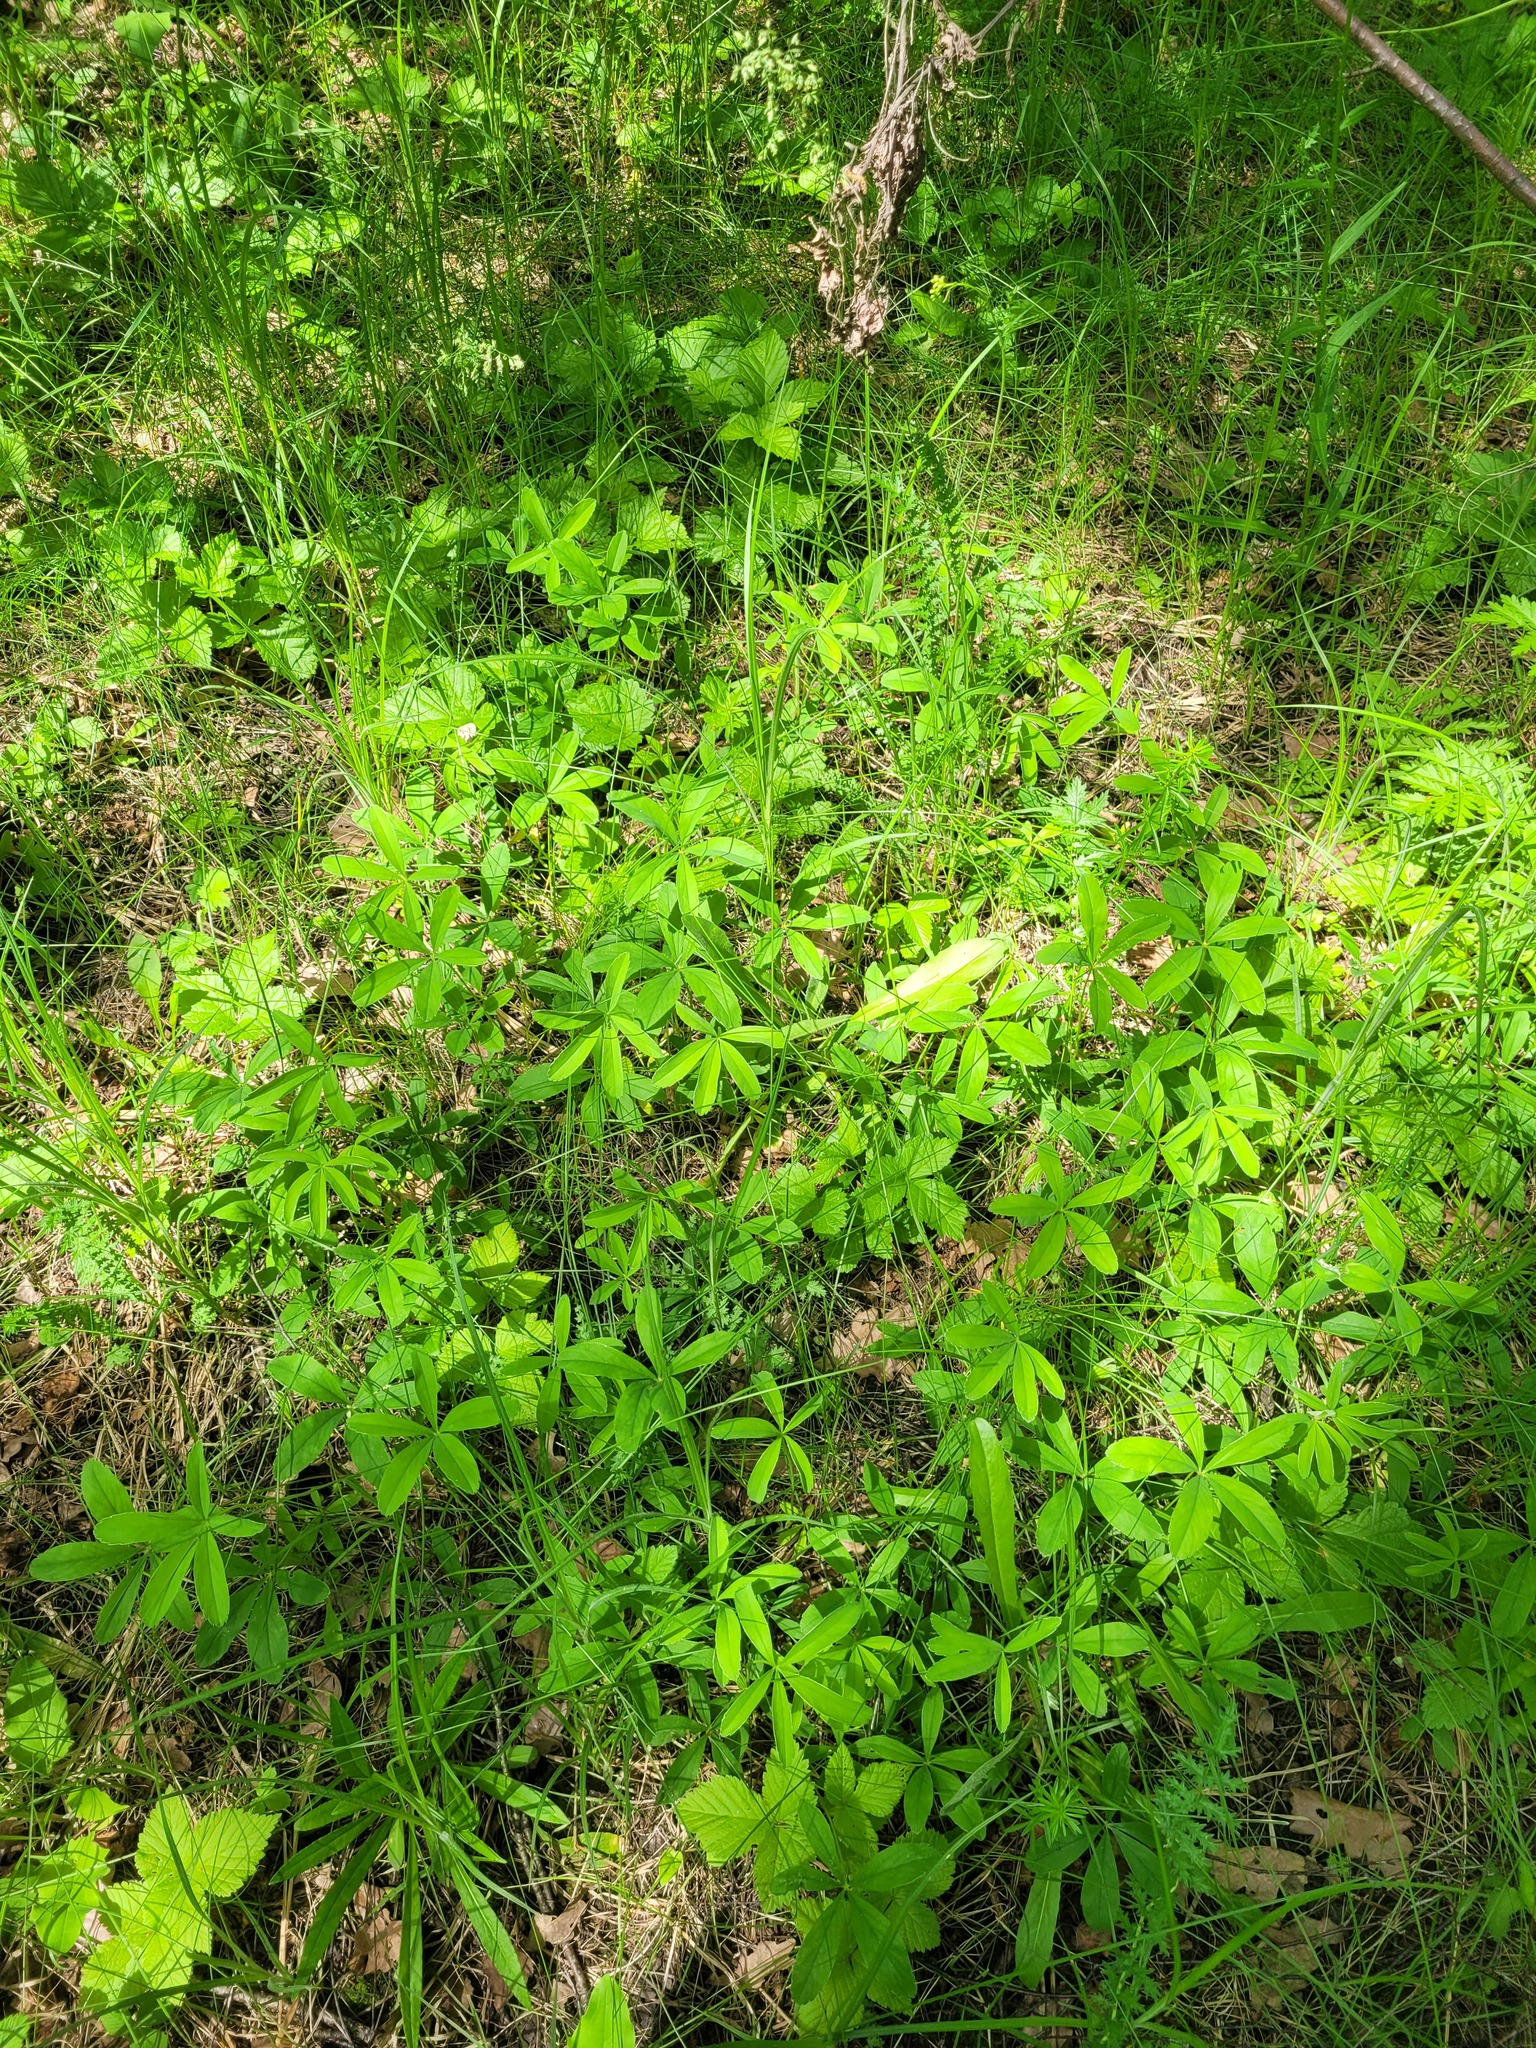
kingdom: Plantae
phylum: Tracheophyta
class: Magnoliopsida
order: Rosales
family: Rosaceae
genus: Potentilla
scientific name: Potentilla alba
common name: White cinquefoil
